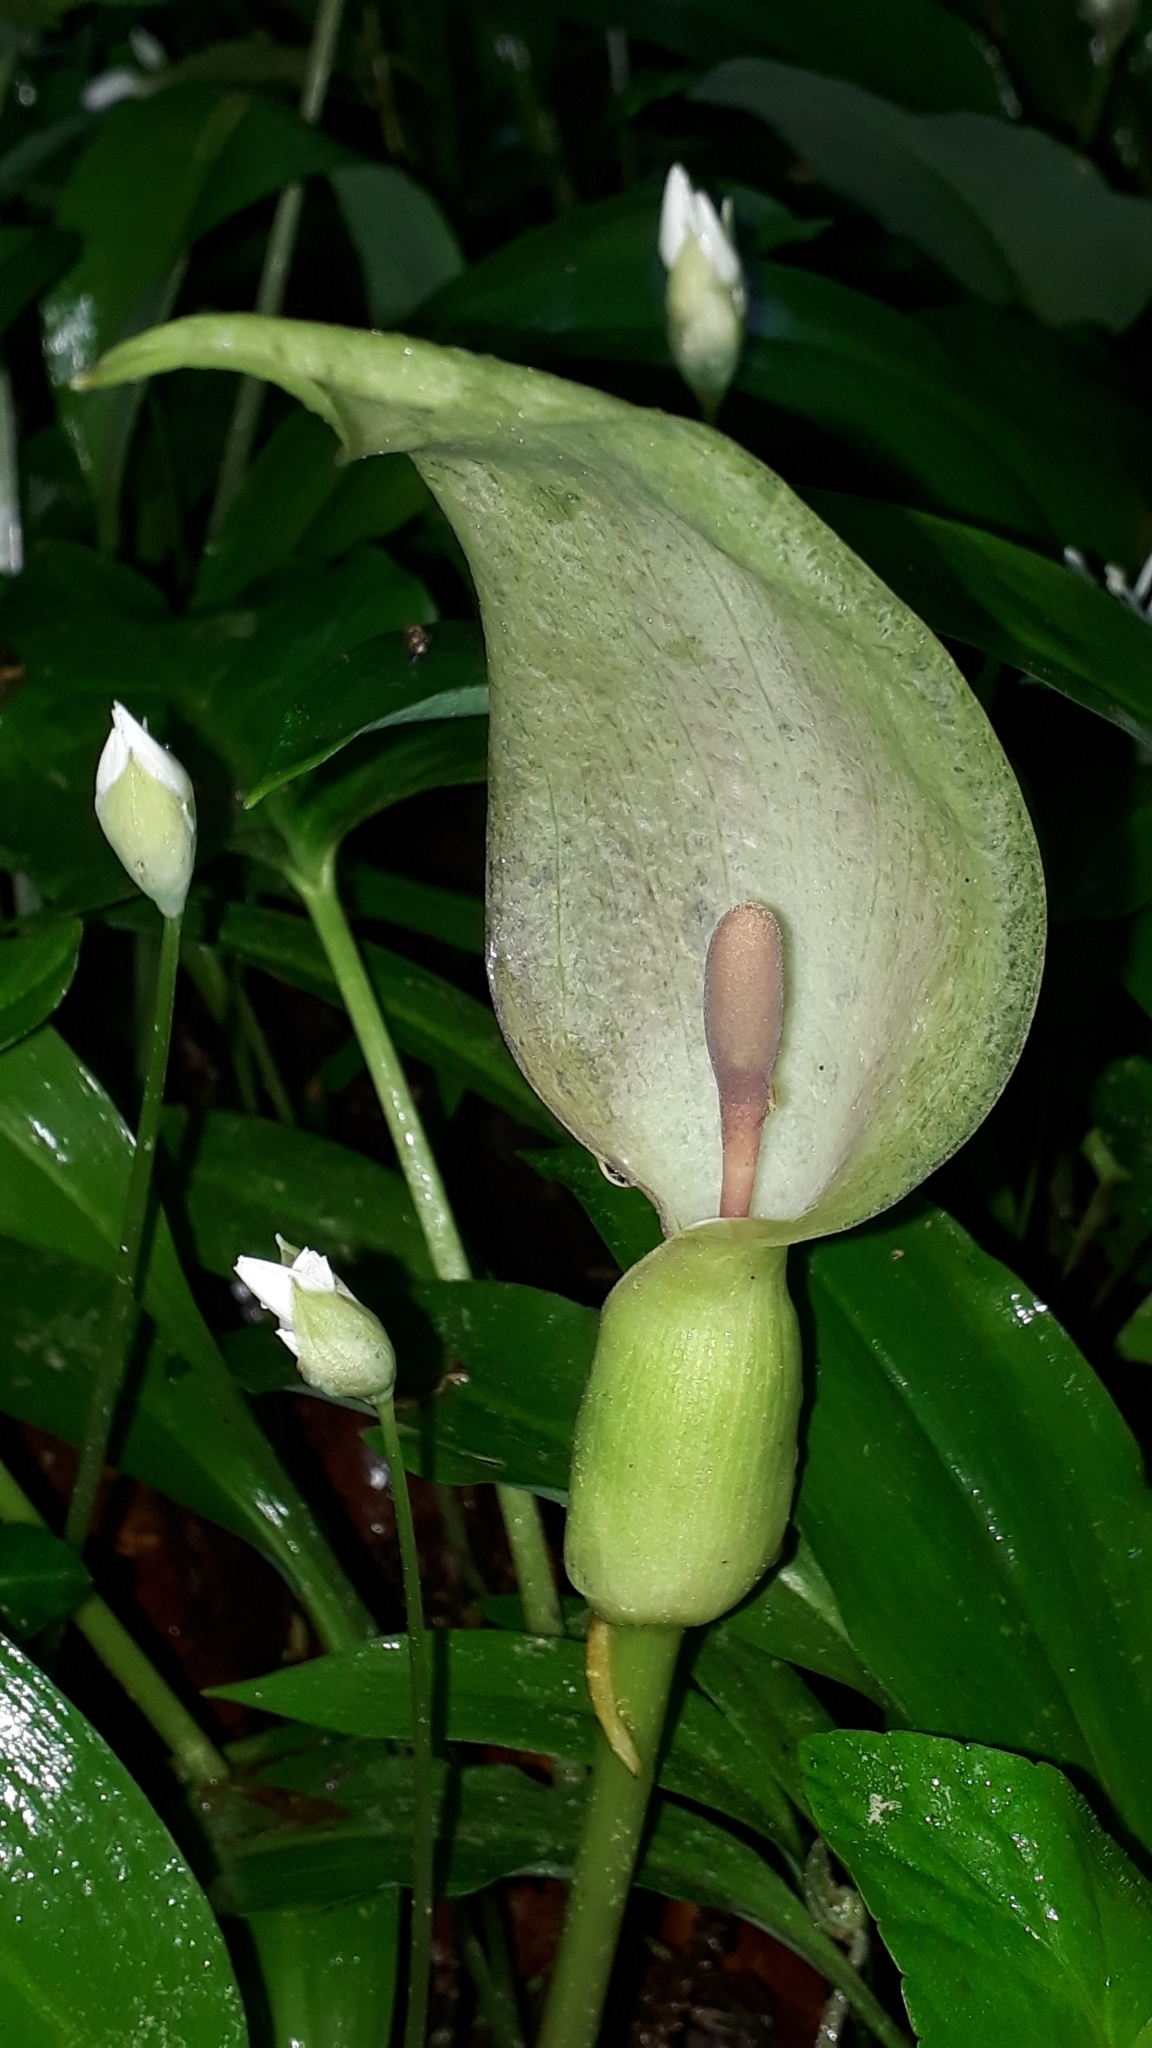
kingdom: Plantae
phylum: Tracheophyta
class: Liliopsida
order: Alismatales
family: Araceae
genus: Arum
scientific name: Arum maculatum
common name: Lords-and-ladies
